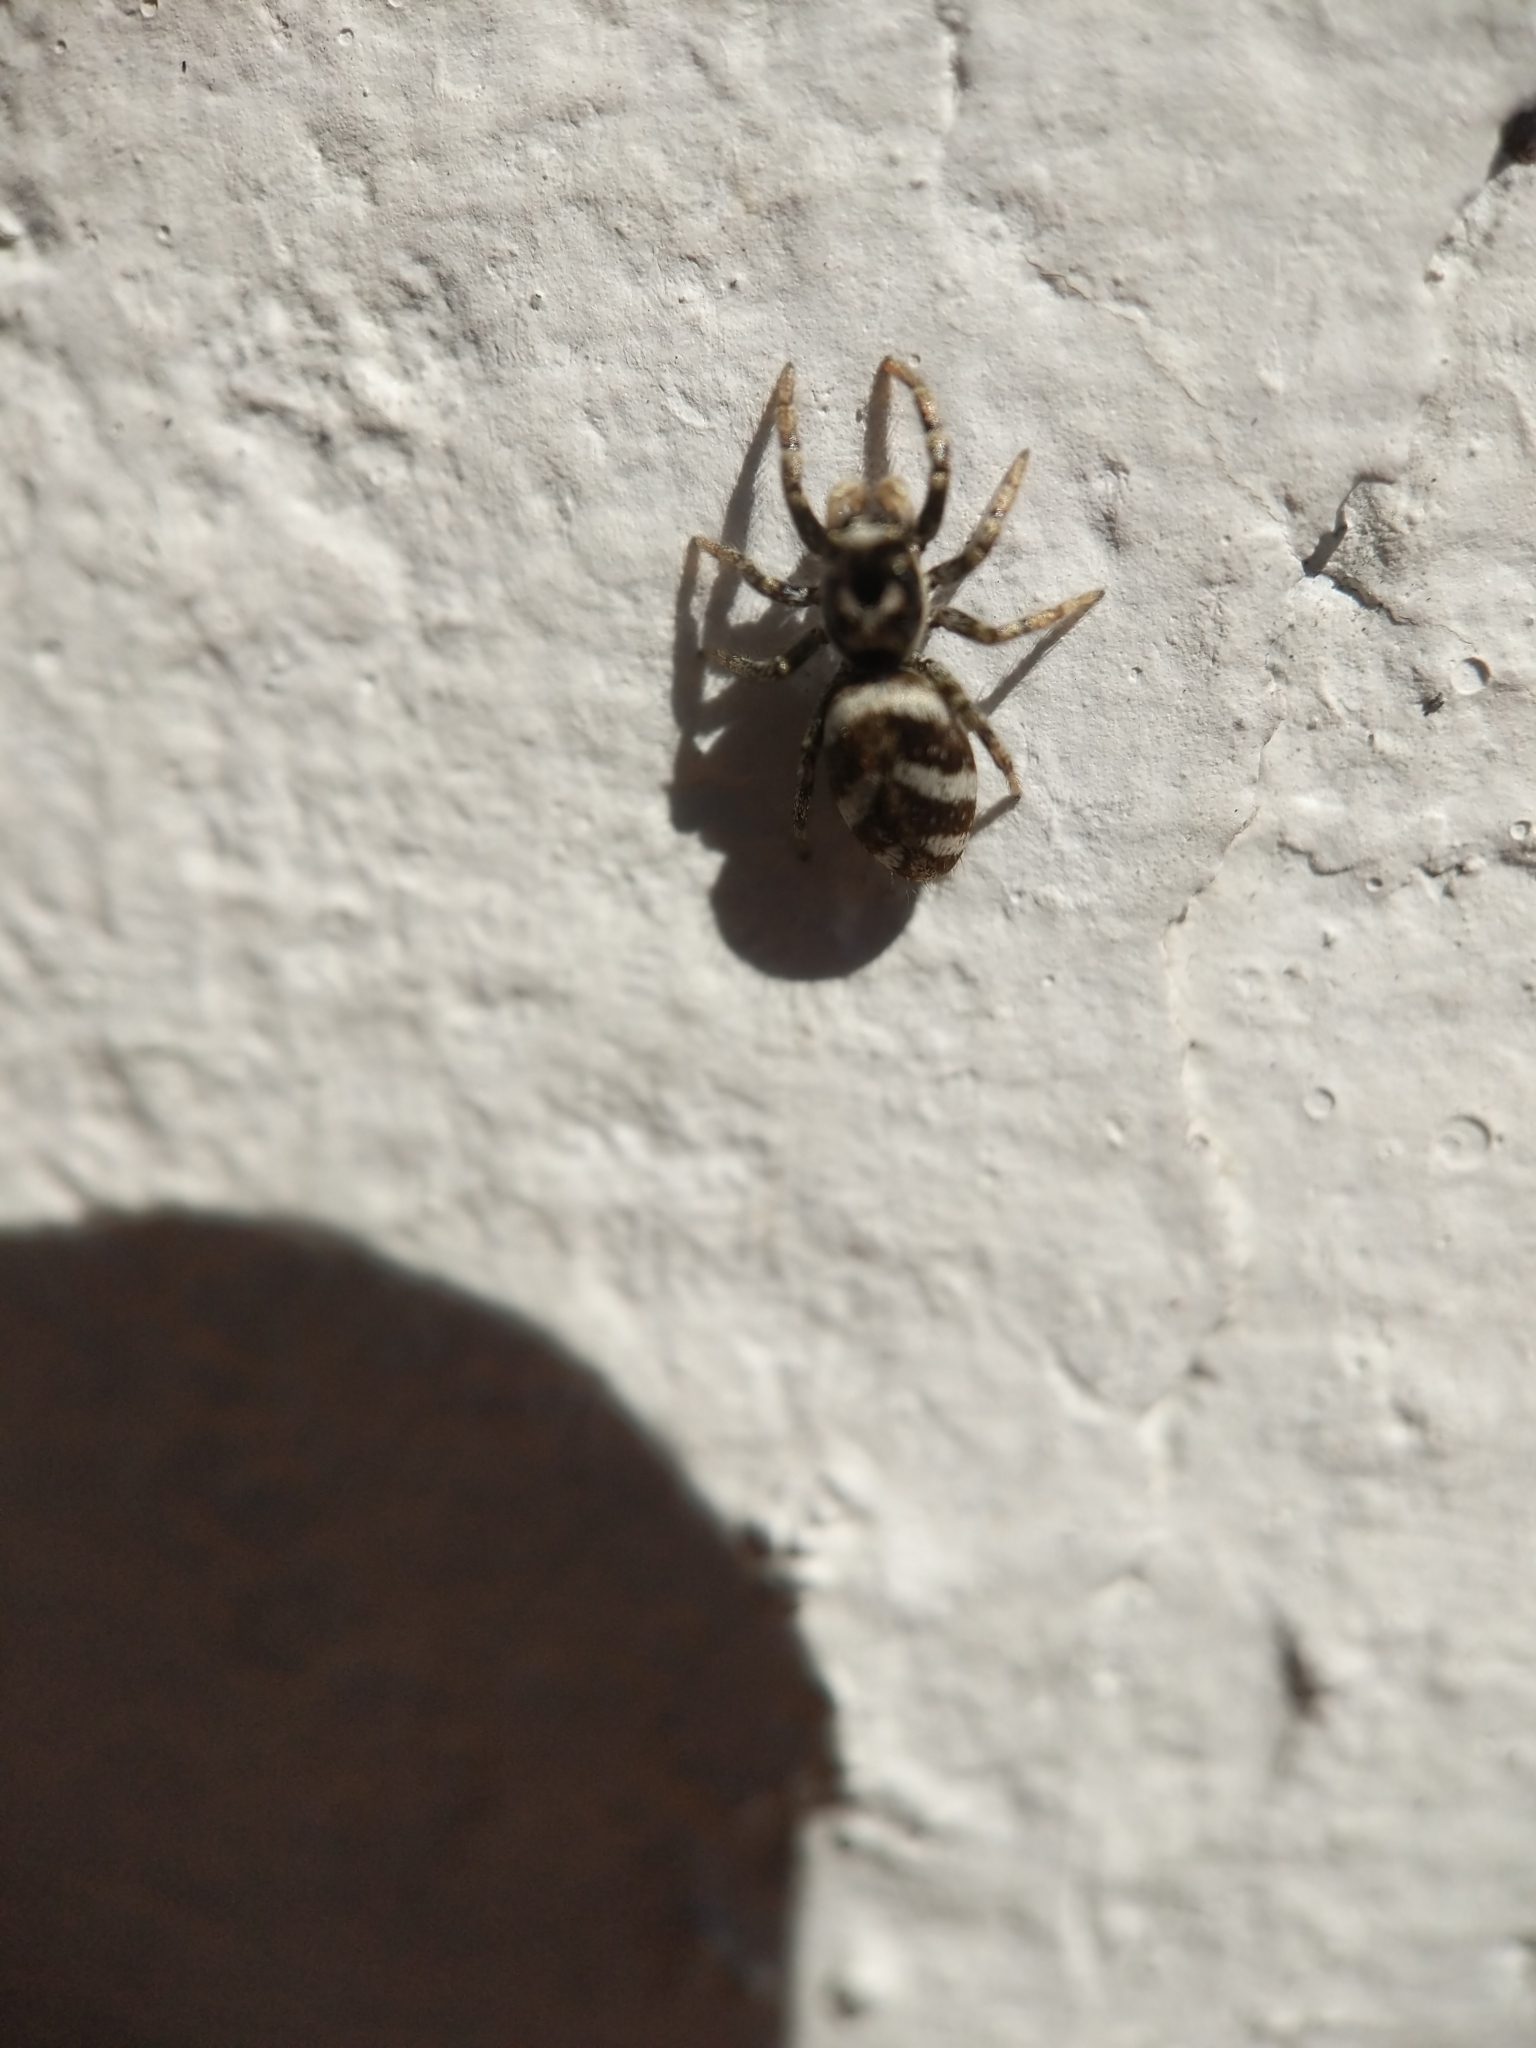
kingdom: Animalia
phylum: Arthropoda
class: Arachnida
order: Araneae
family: Salticidae
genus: Salticus
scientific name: Salticus scenicus
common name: Zebra jumper
